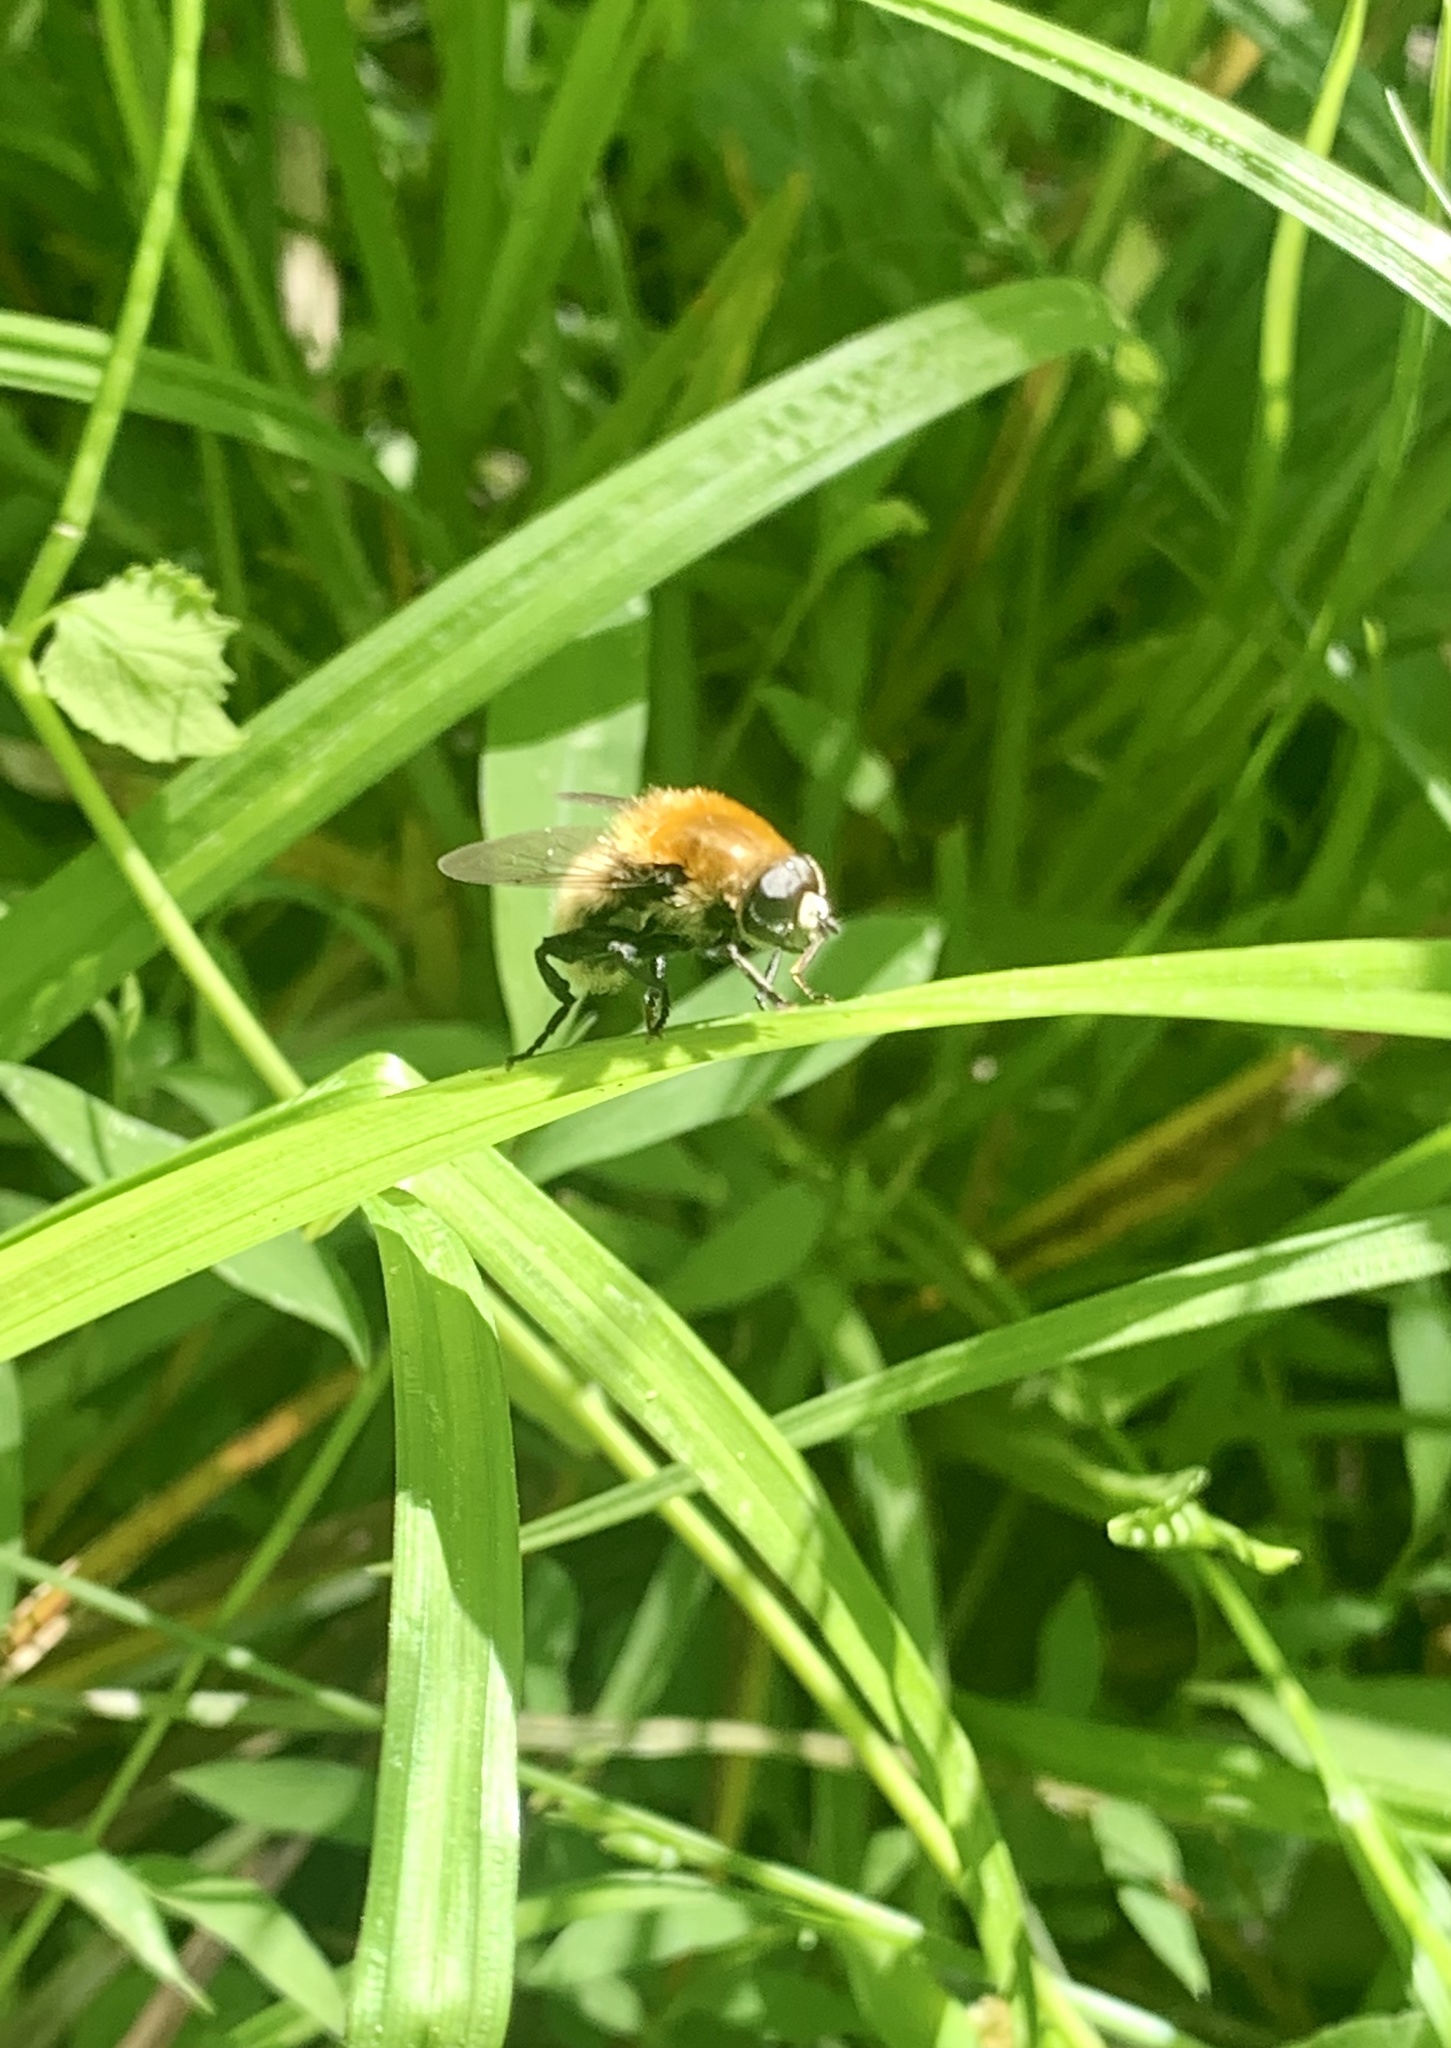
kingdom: Animalia
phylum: Arthropoda
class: Insecta
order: Diptera
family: Syrphidae
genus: Merodon
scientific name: Merodon equestris
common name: Greater bulb-fly
